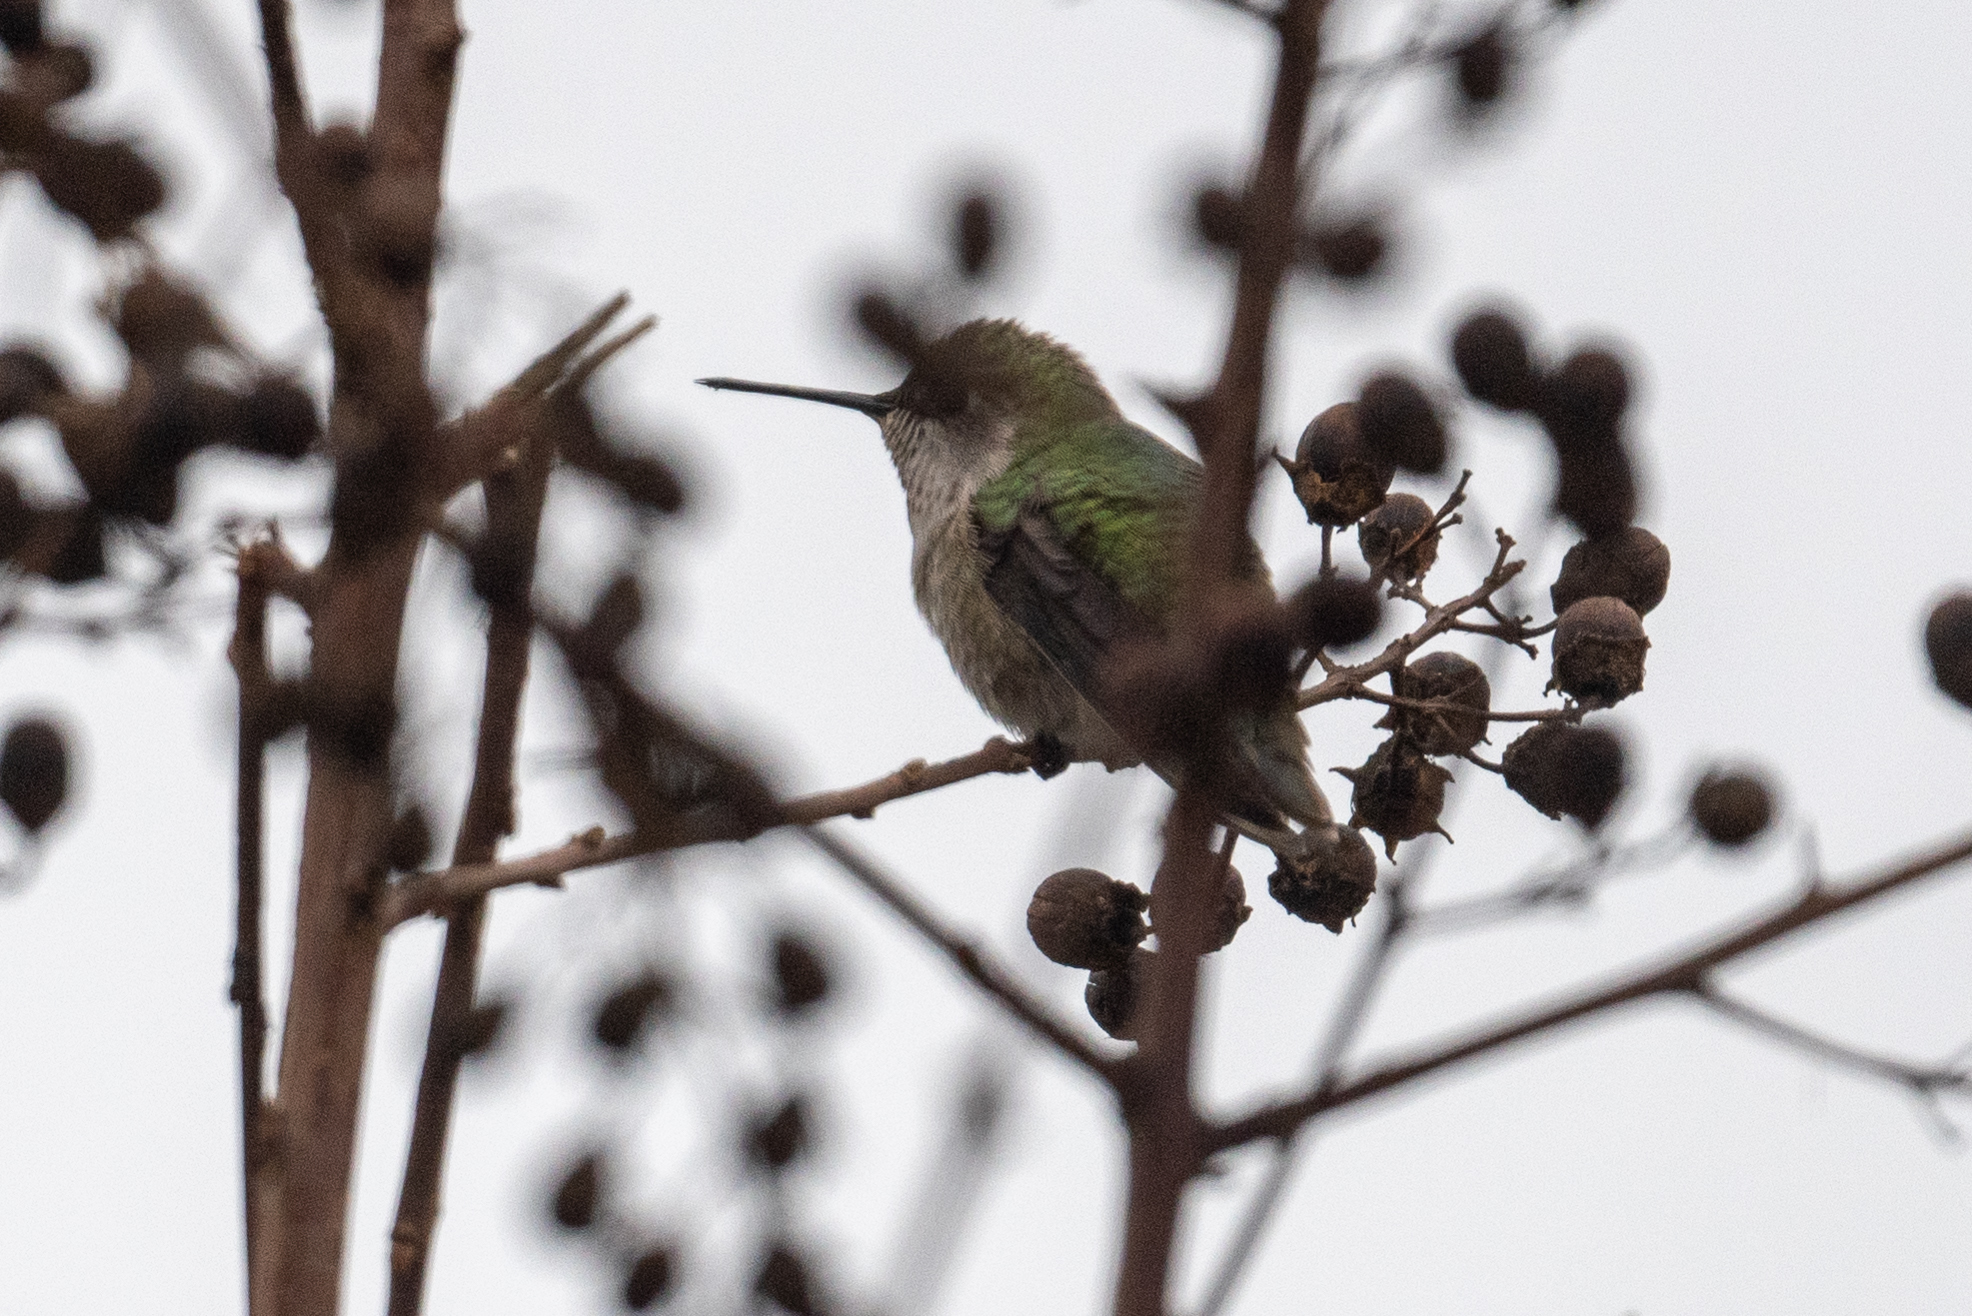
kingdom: Animalia
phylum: Chordata
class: Aves
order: Apodiformes
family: Trochilidae
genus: Calypte
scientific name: Calypte anna
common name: Anna's hummingbird
